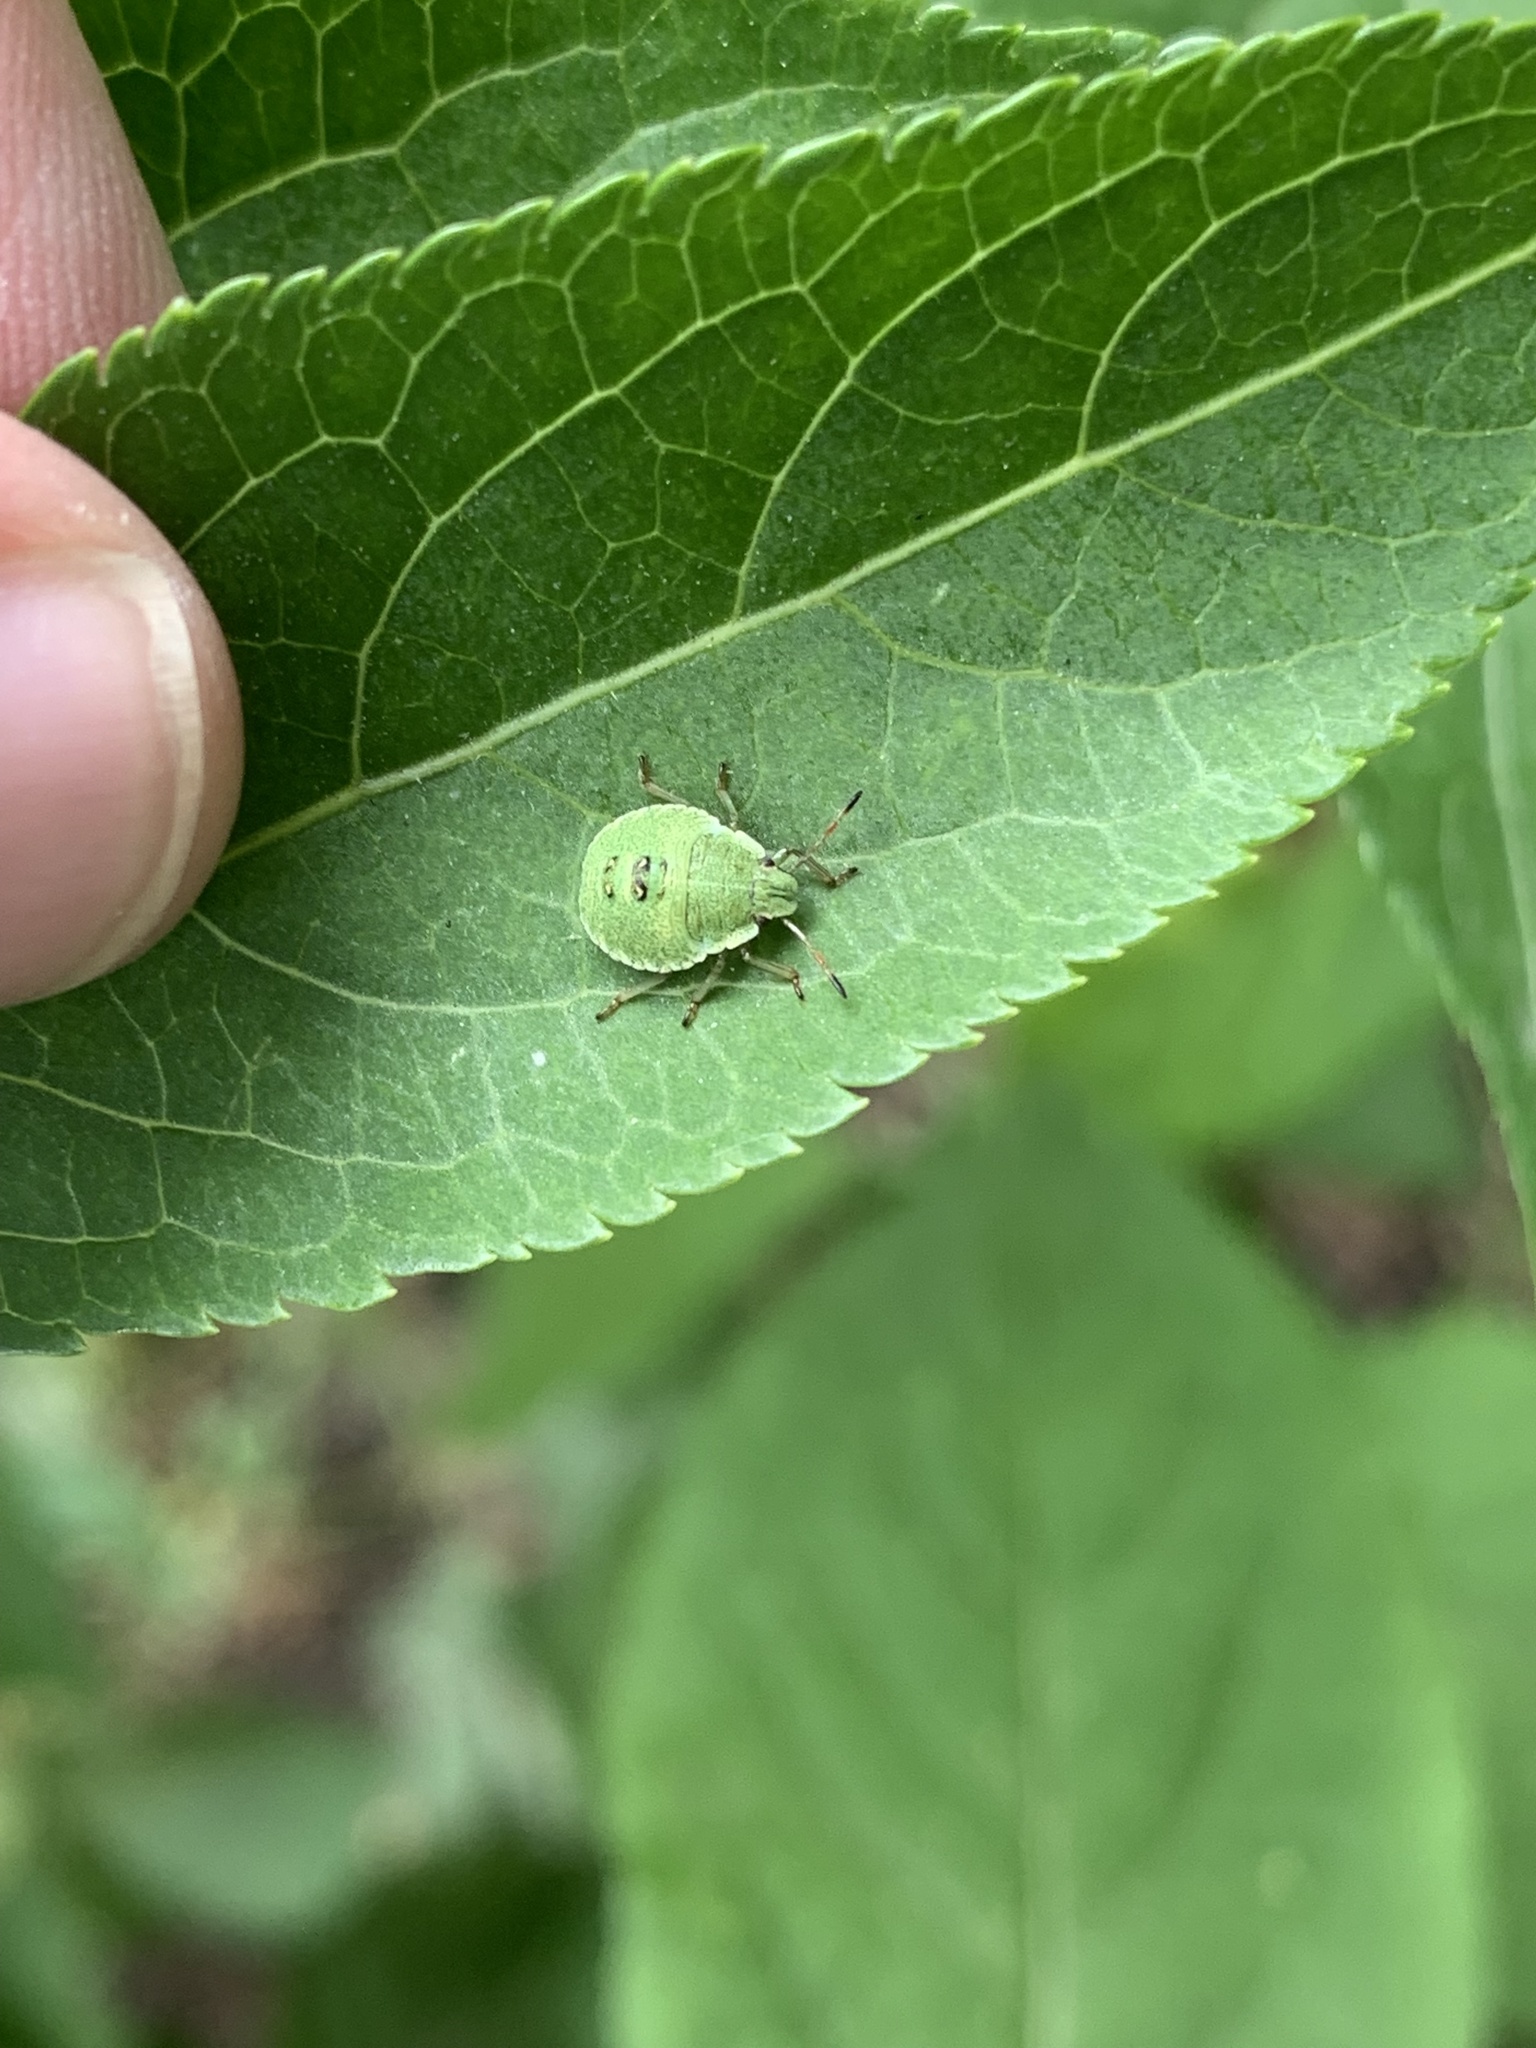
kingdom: Animalia
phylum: Arthropoda
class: Insecta
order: Hemiptera
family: Pentatomidae
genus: Palomena
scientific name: Palomena prasina
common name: Green shieldbug
